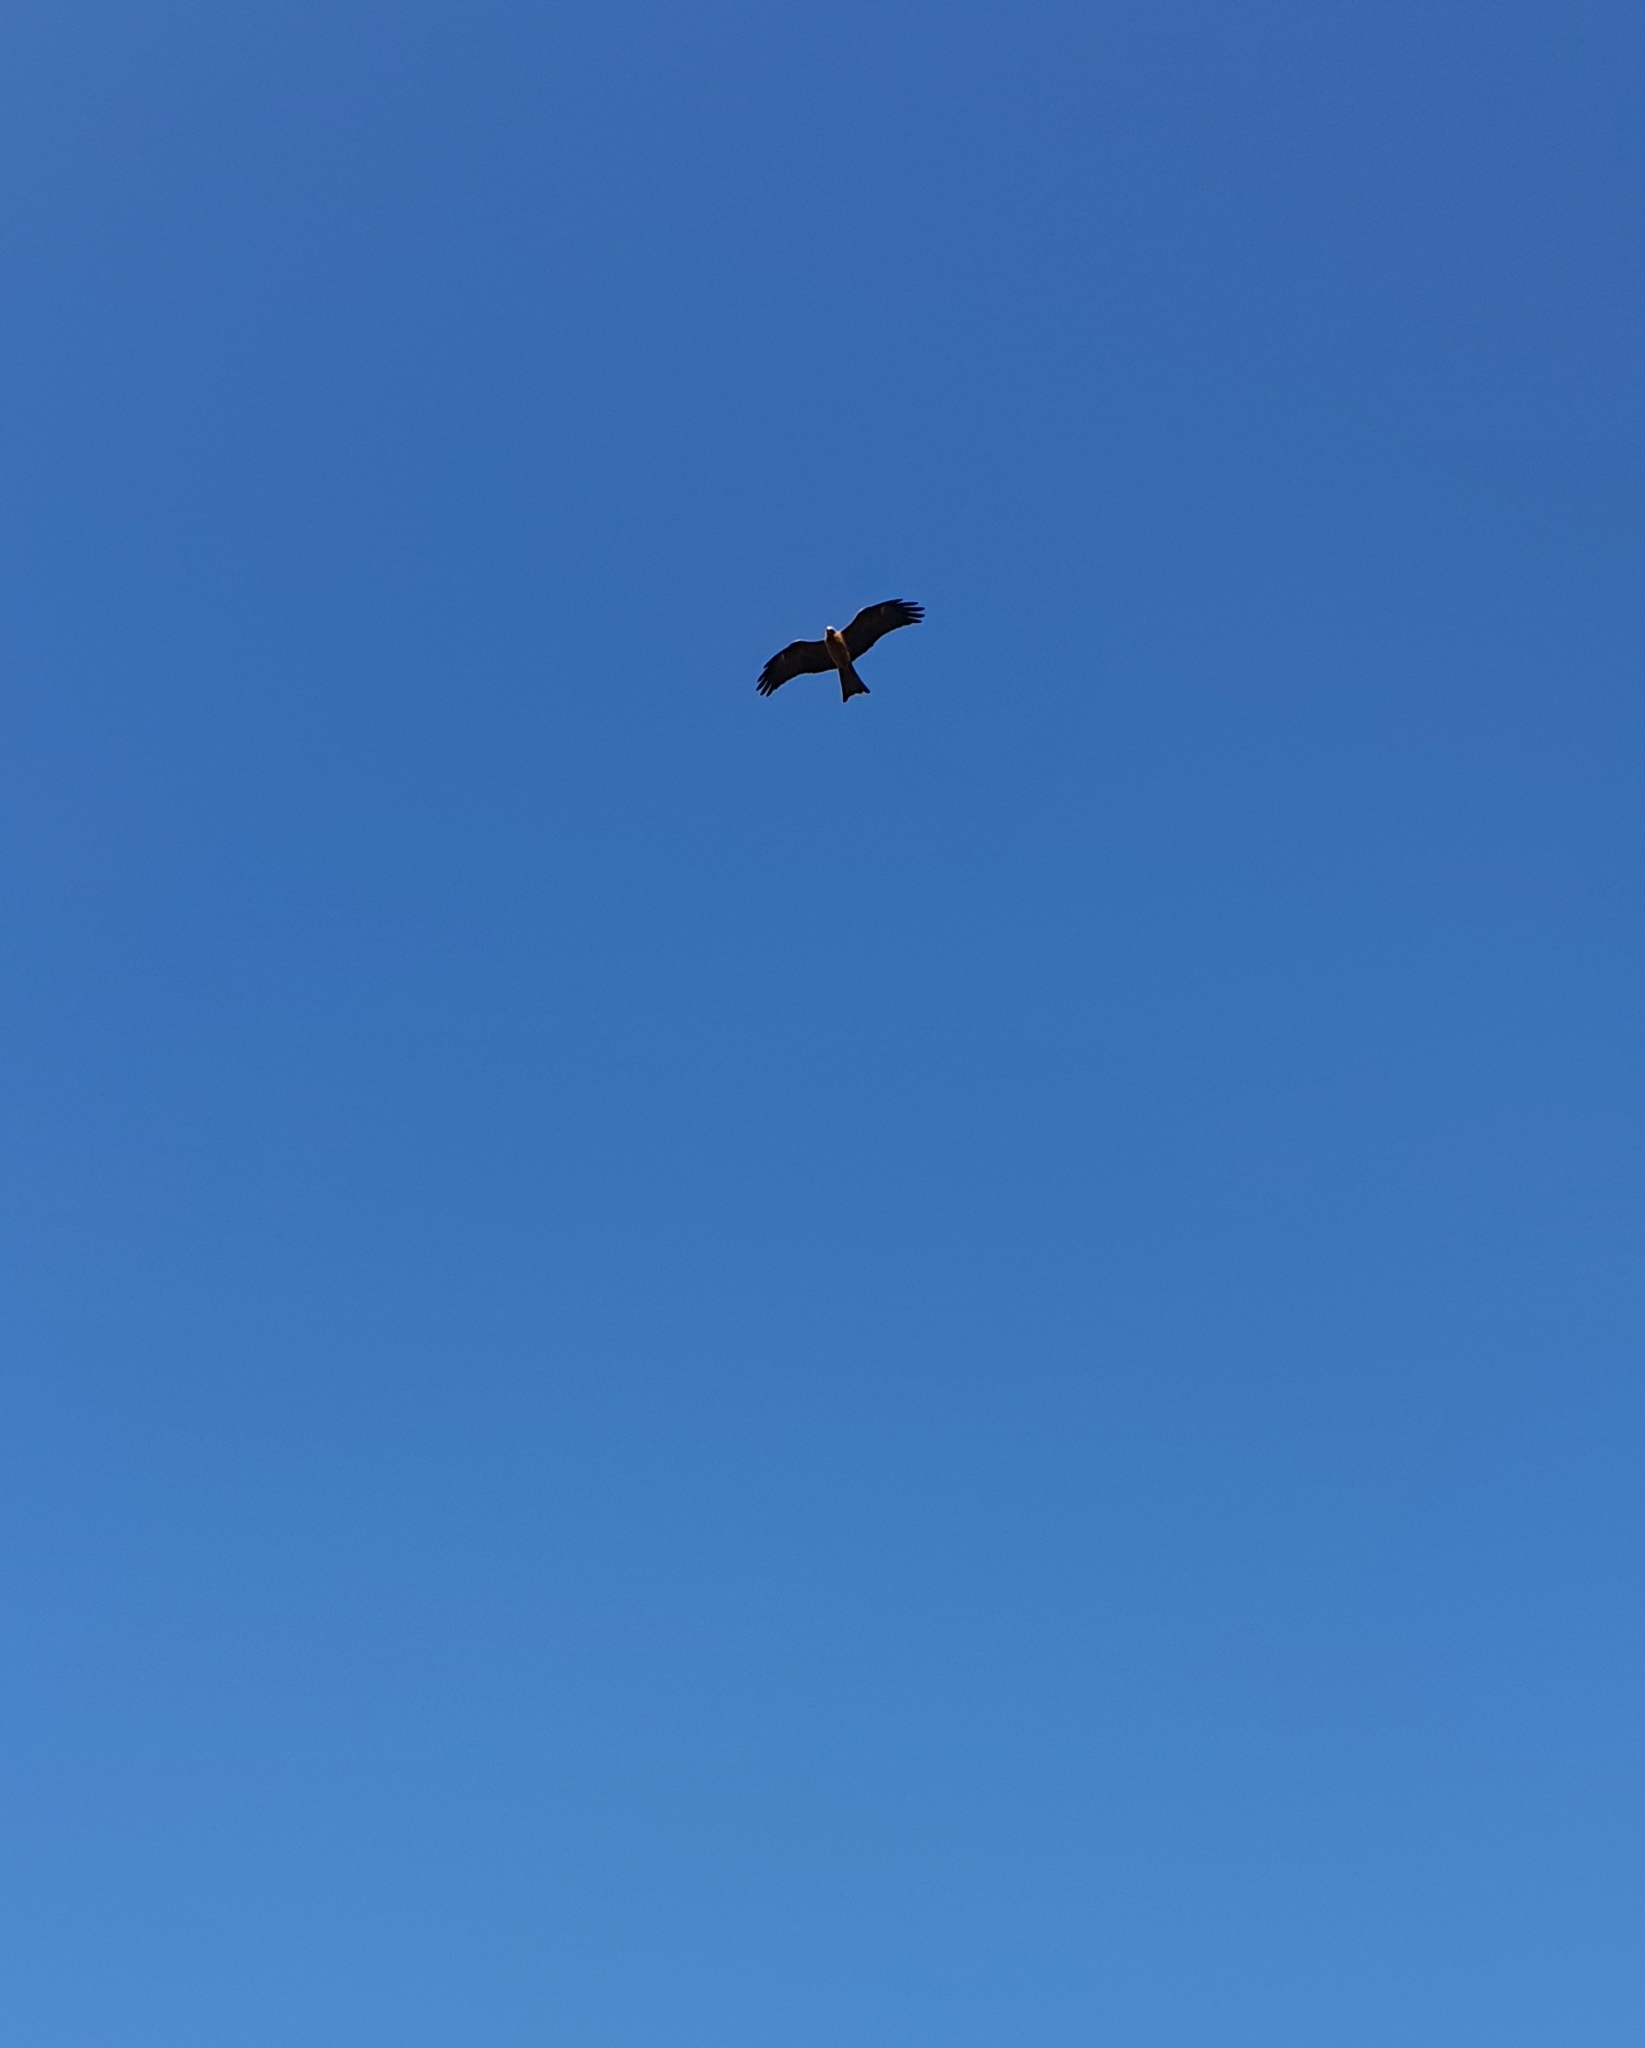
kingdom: Animalia
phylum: Chordata
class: Aves
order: Accipitriformes
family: Accipitridae
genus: Milvus
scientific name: Milvus migrans
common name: Black kite
